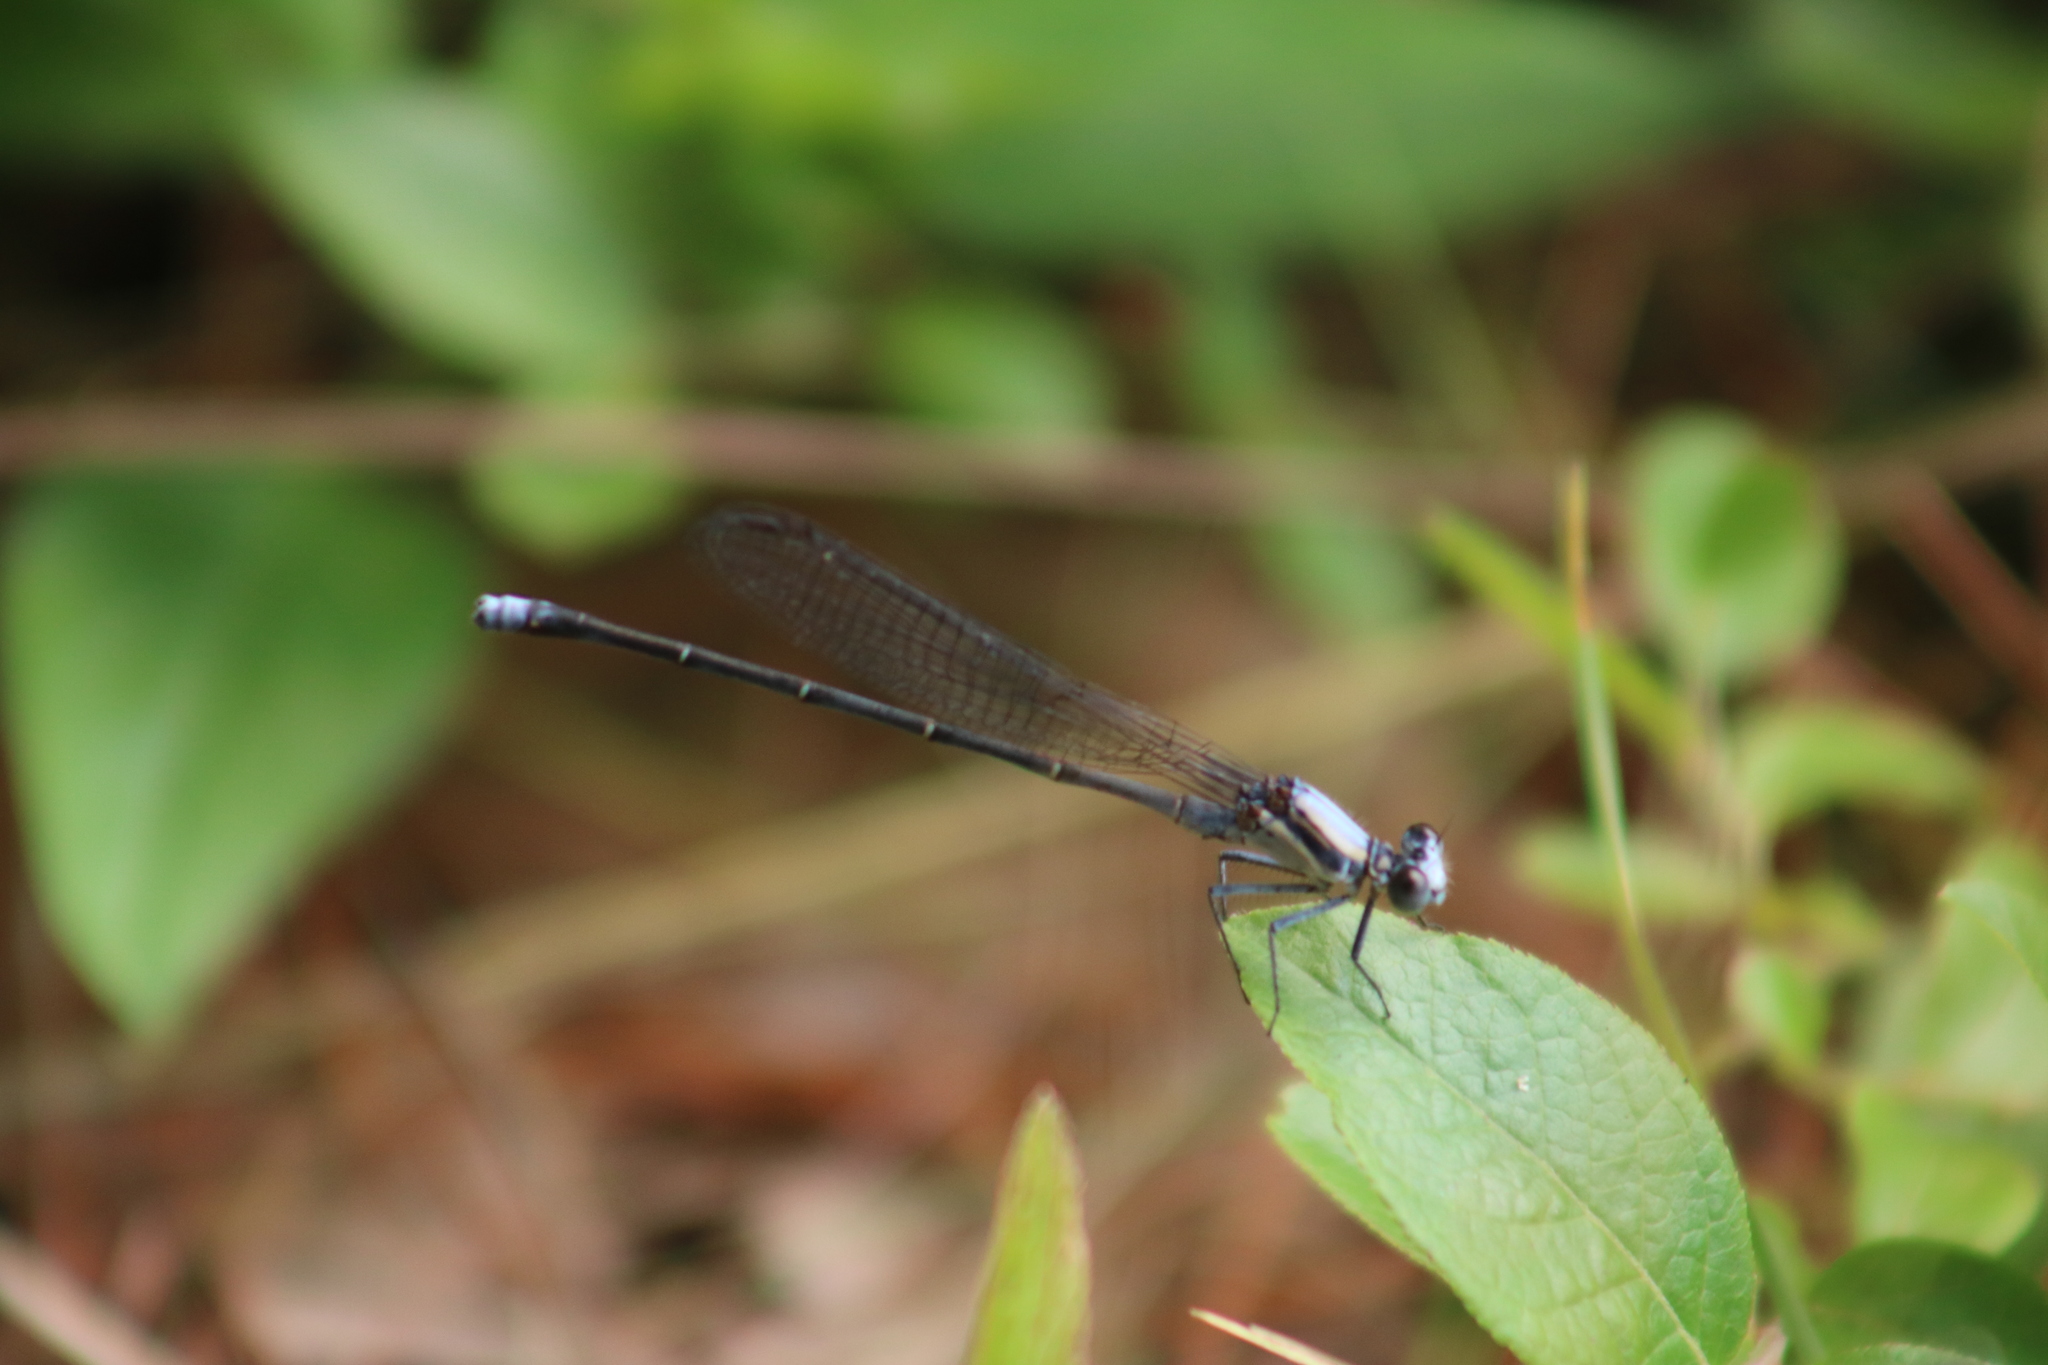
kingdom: Animalia
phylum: Arthropoda
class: Insecta
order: Odonata
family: Coenagrionidae
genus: Argia
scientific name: Argia moesta
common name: Powdered dancer
